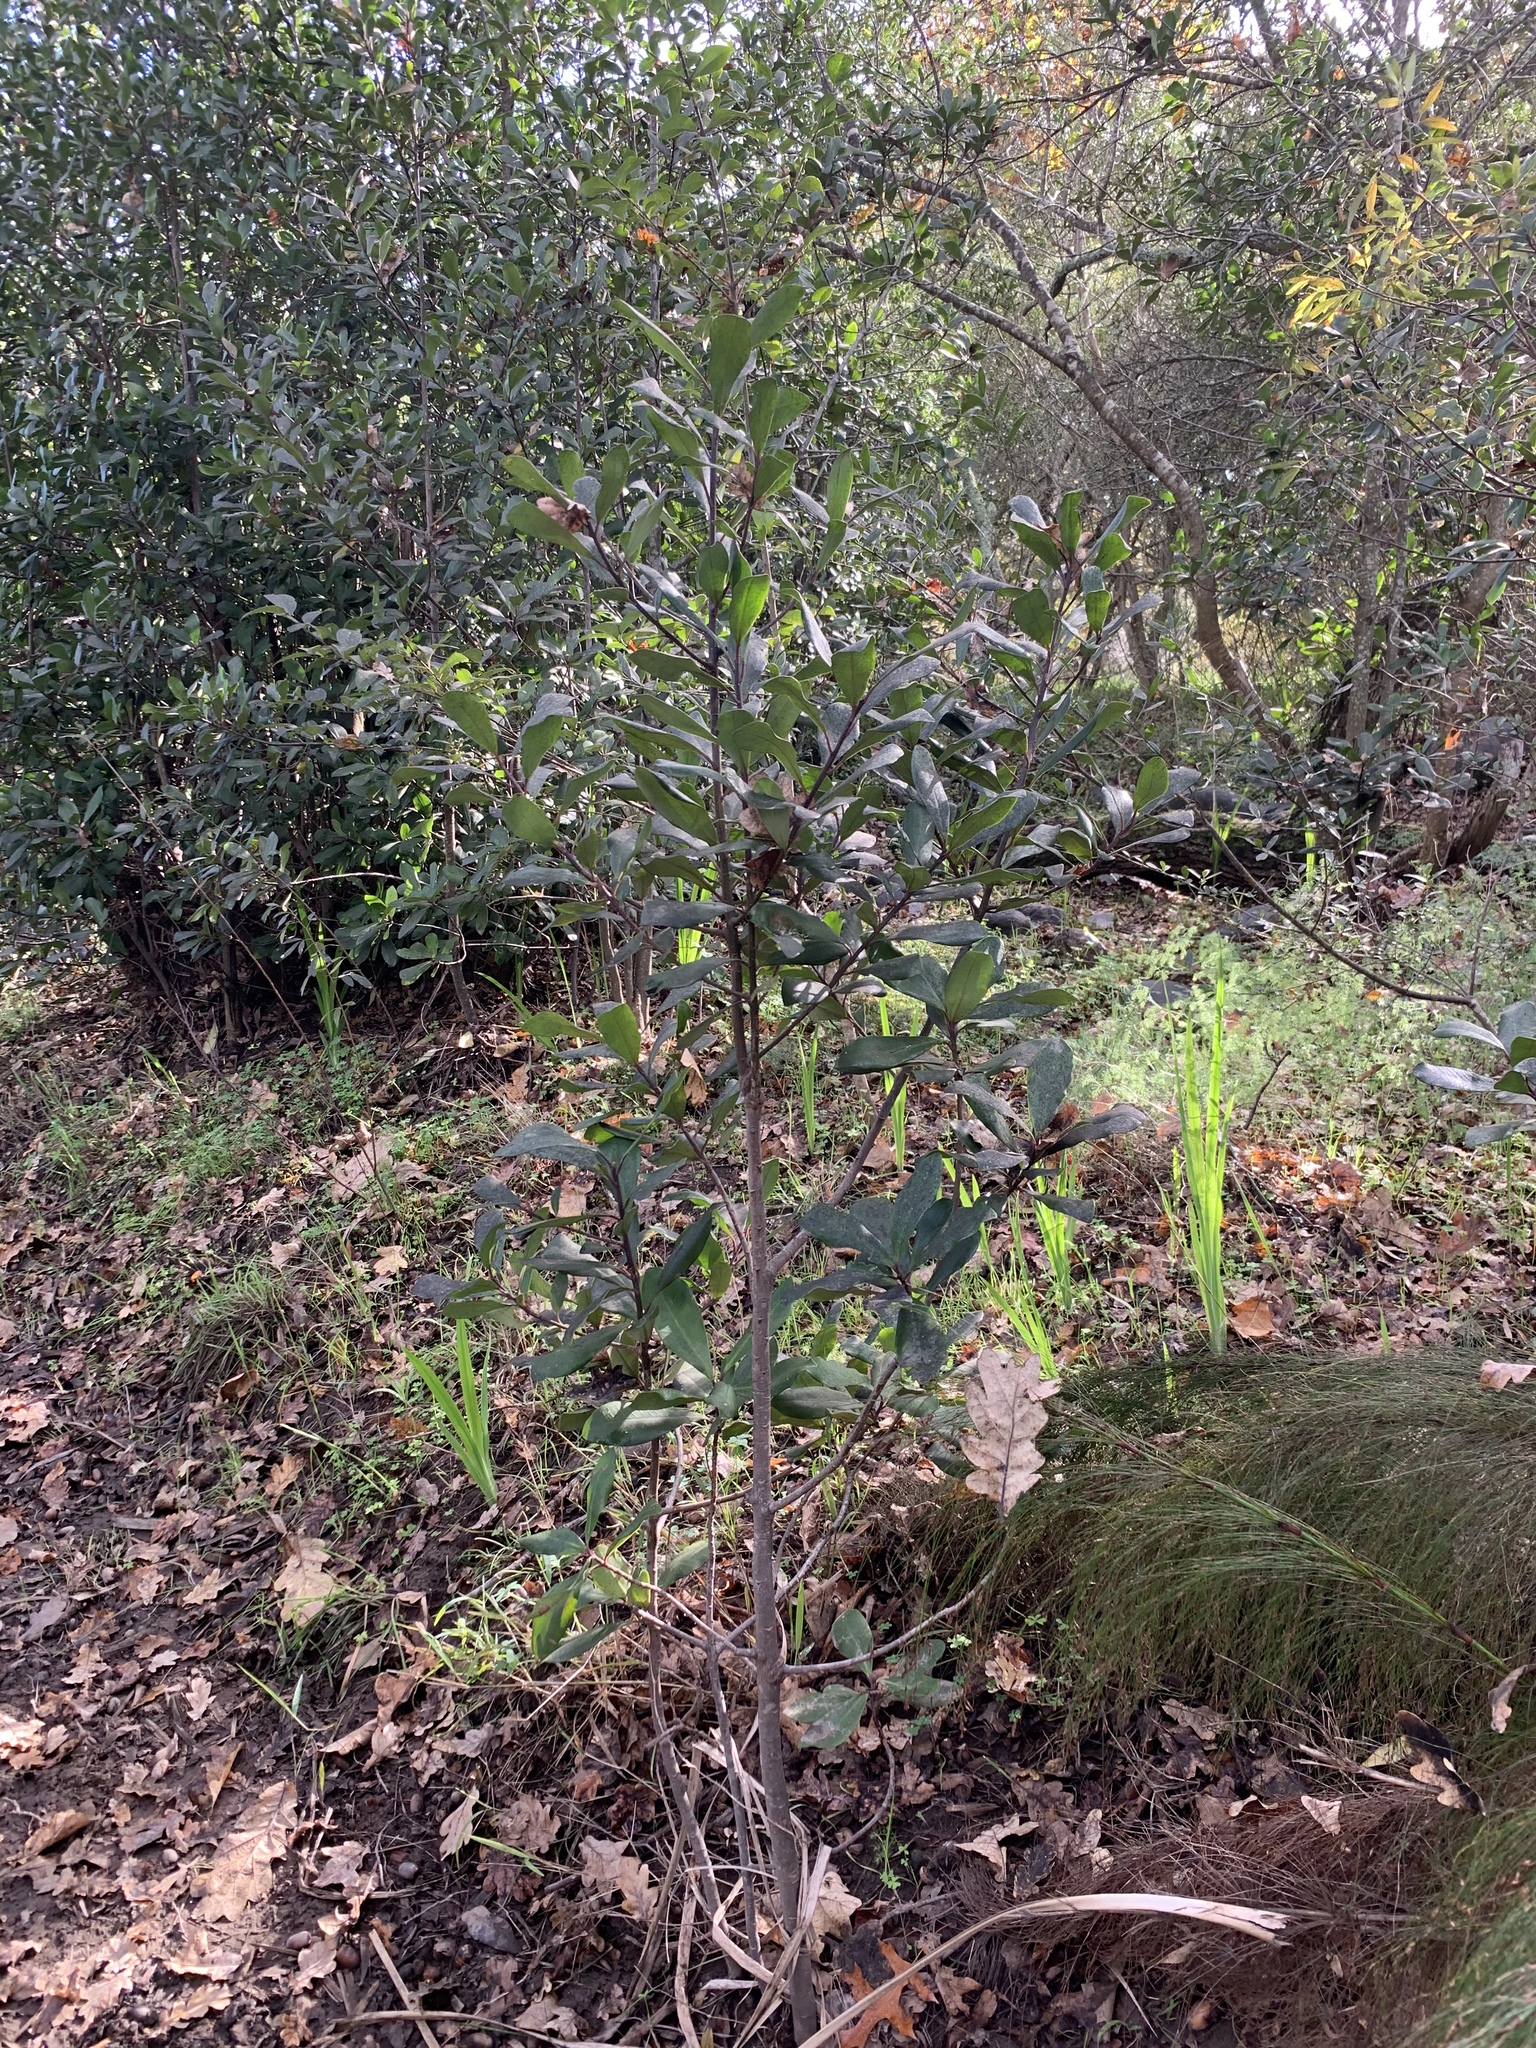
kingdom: Plantae
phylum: Tracheophyta
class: Magnoliopsida
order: Ericales
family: Primulaceae
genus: Myrsine
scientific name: Myrsine melanophloeos
